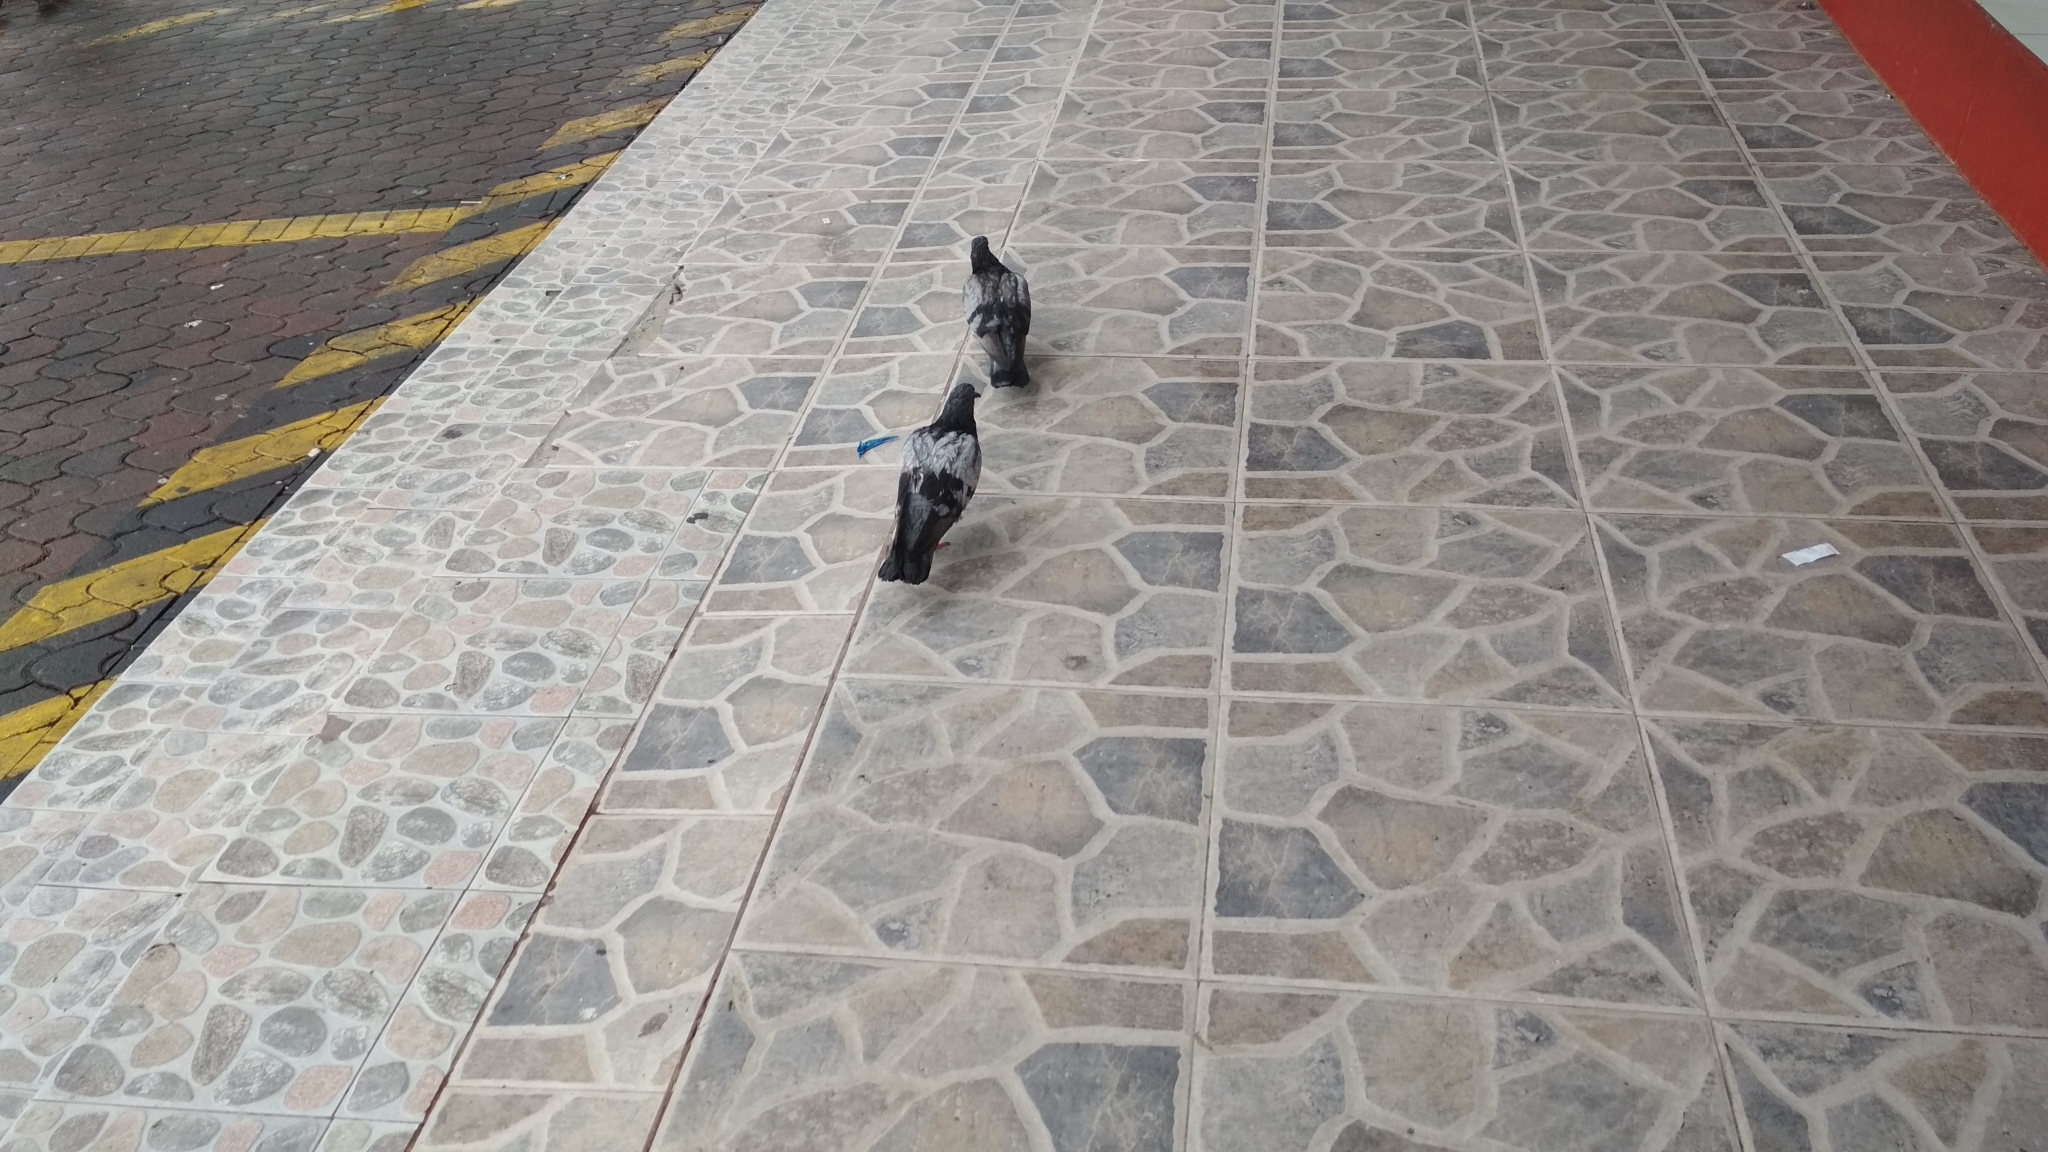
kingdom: Animalia
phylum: Chordata
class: Aves
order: Columbiformes
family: Columbidae
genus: Columba
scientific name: Columba livia
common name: Rock pigeon
